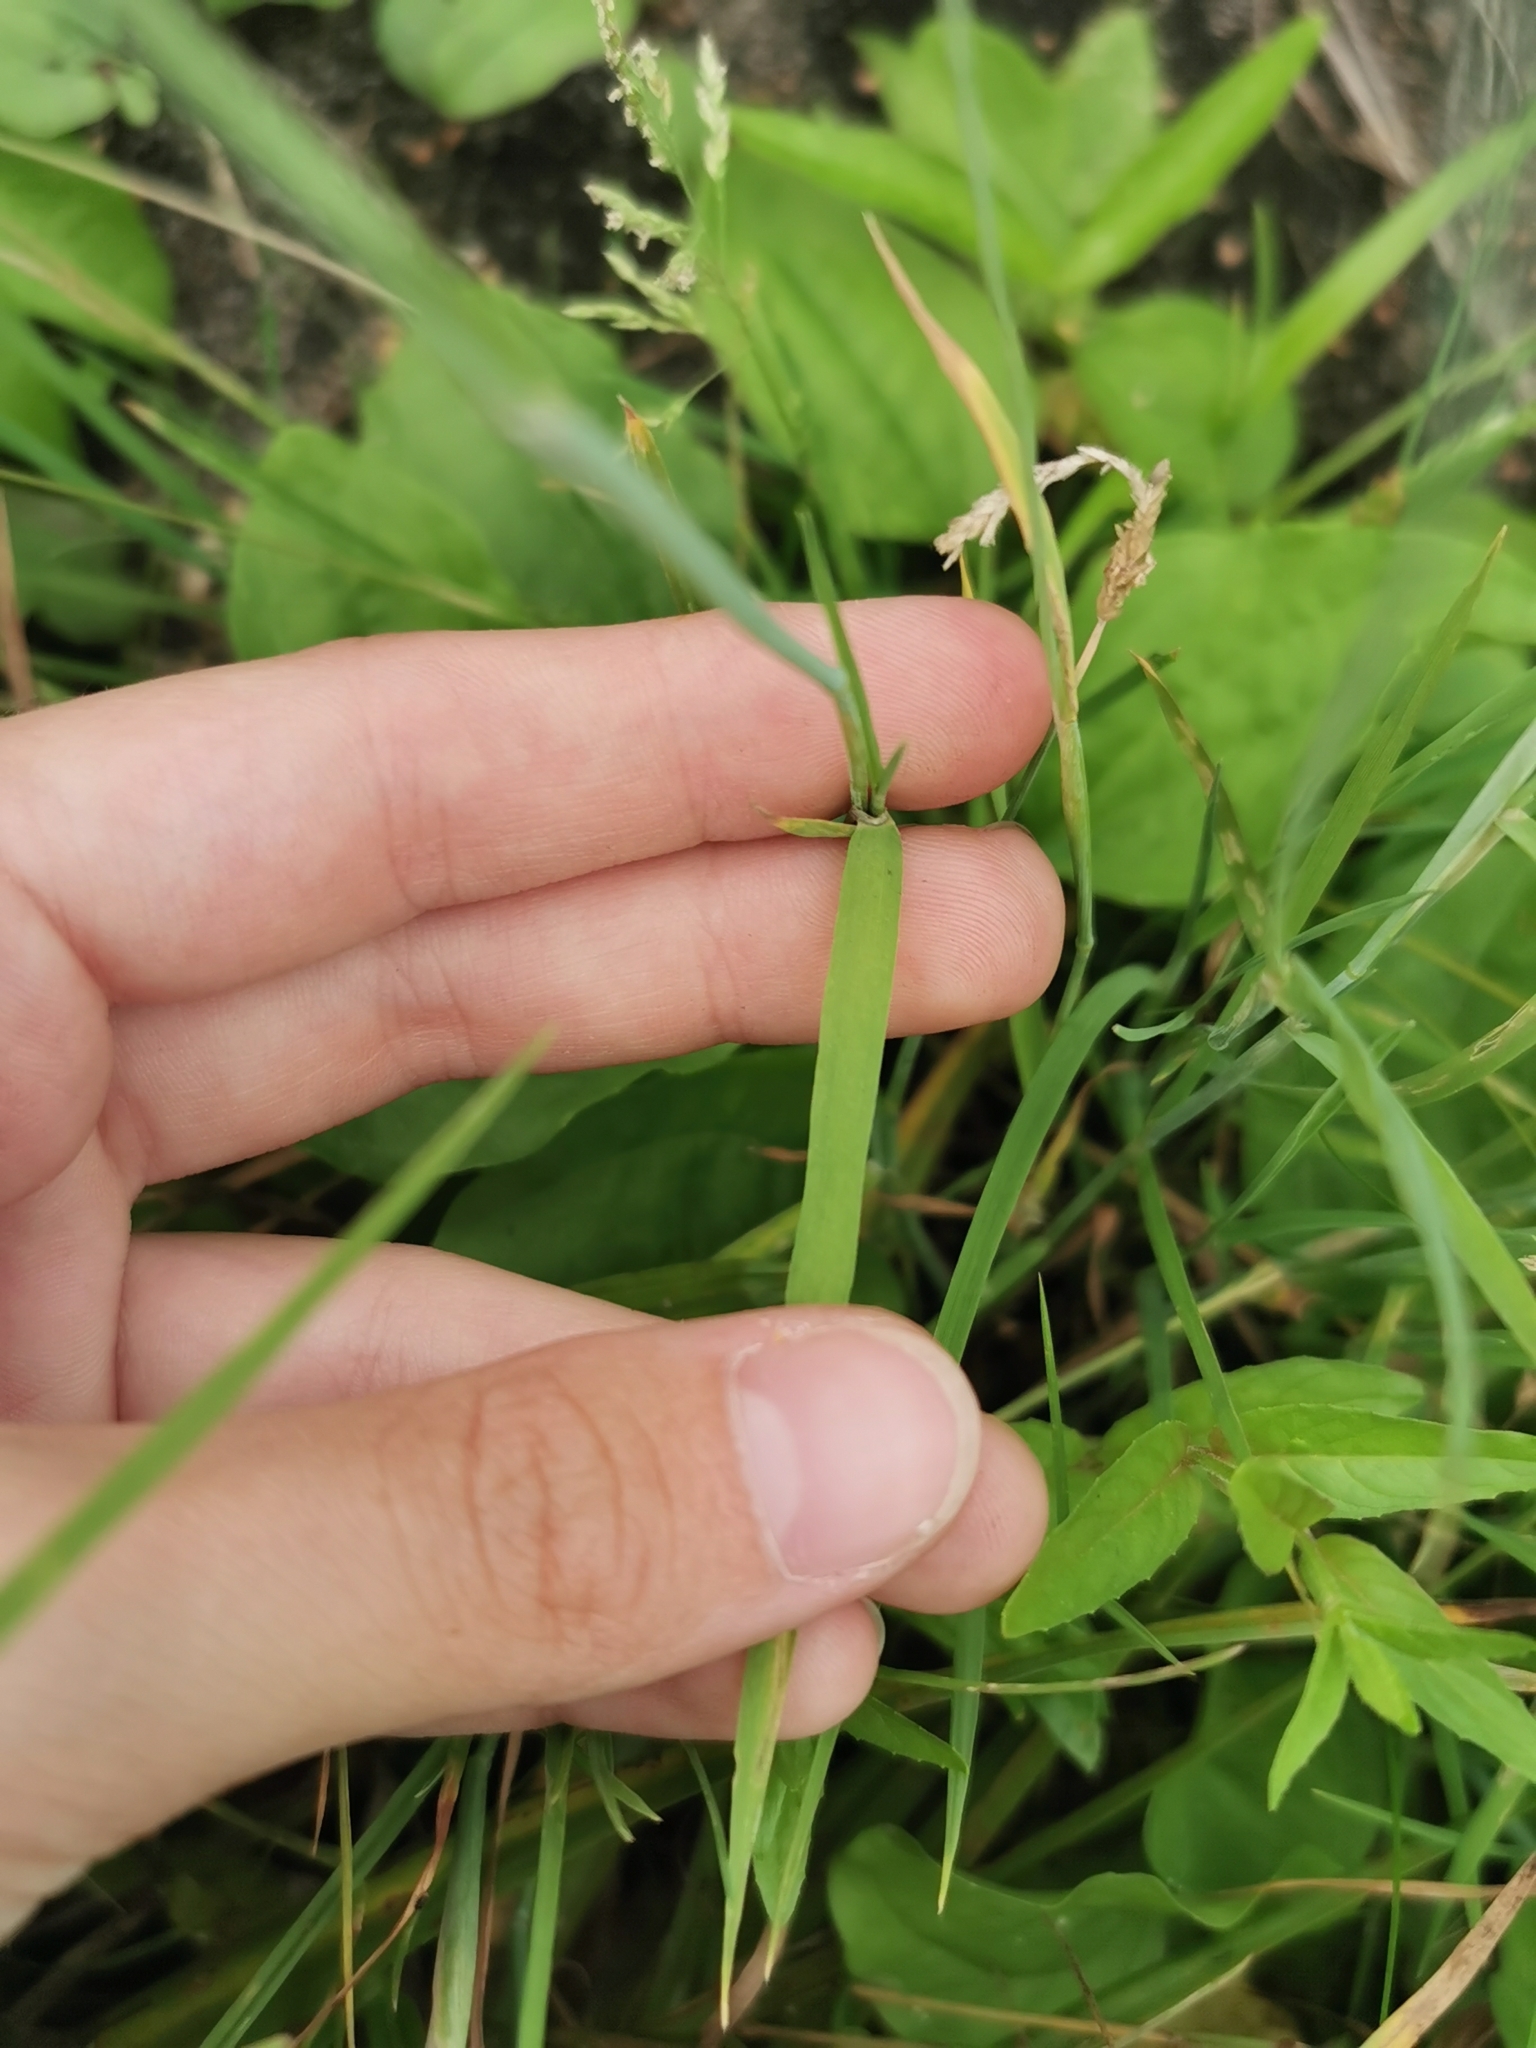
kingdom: Plantae
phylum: Tracheophyta
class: Liliopsida
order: Poales
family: Poaceae
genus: Alopecurus
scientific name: Alopecurus aequalis
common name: Orange foxtail
